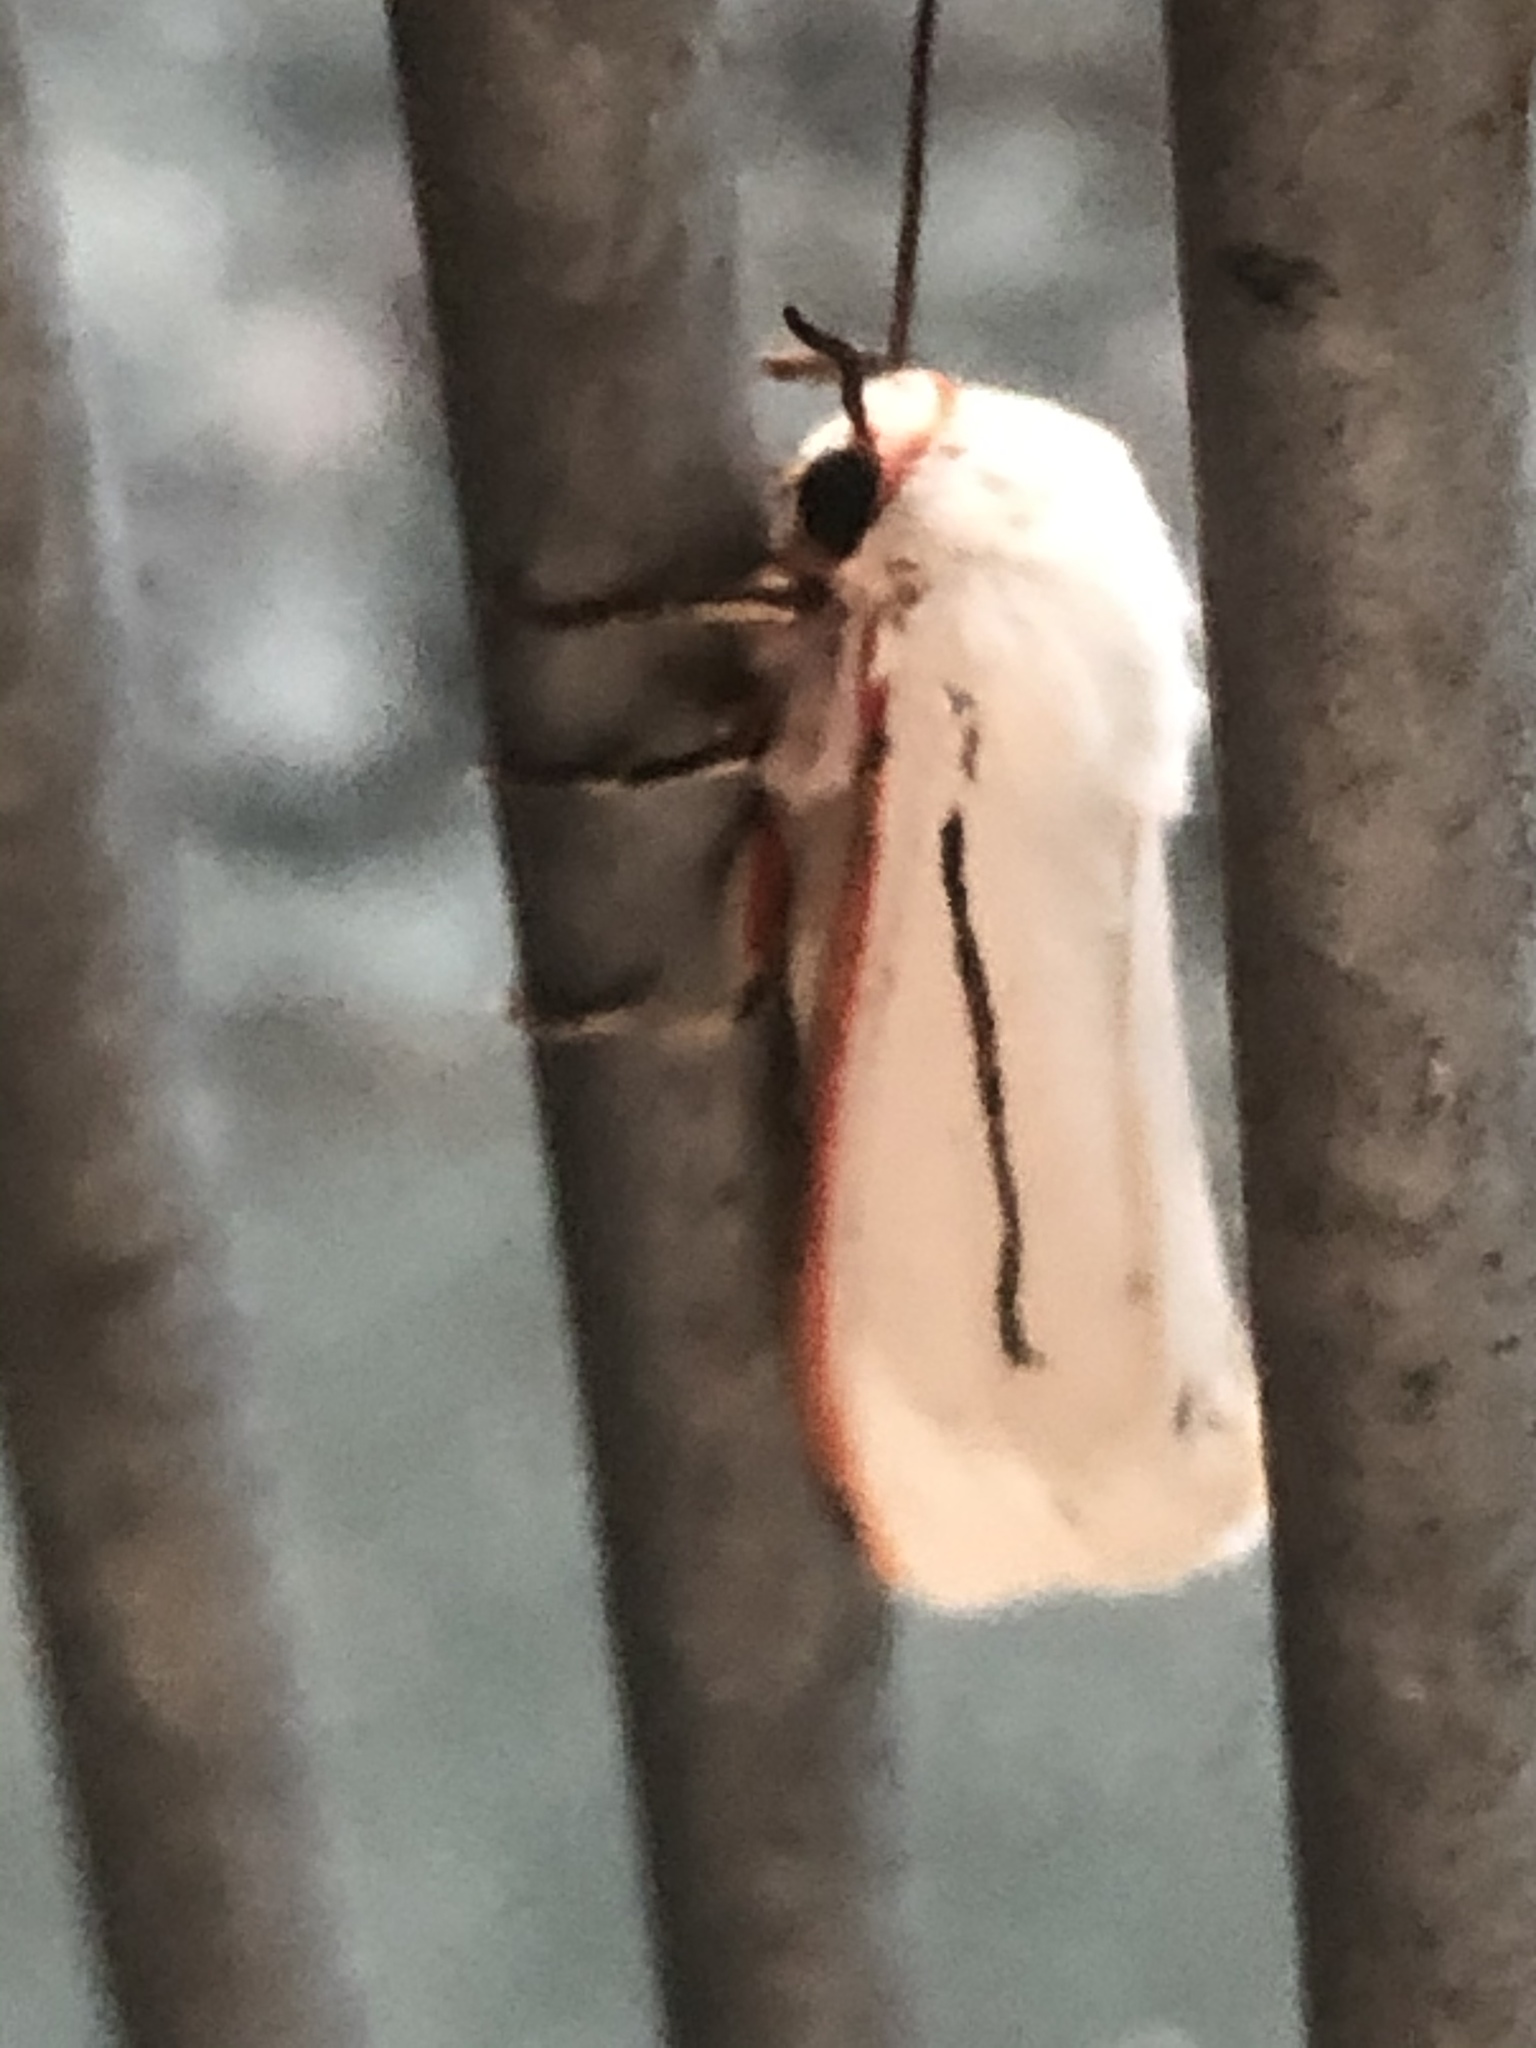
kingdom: Animalia
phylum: Arthropoda
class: Insecta
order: Lepidoptera
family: Erebidae
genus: Aloa
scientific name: Aloa marginata
